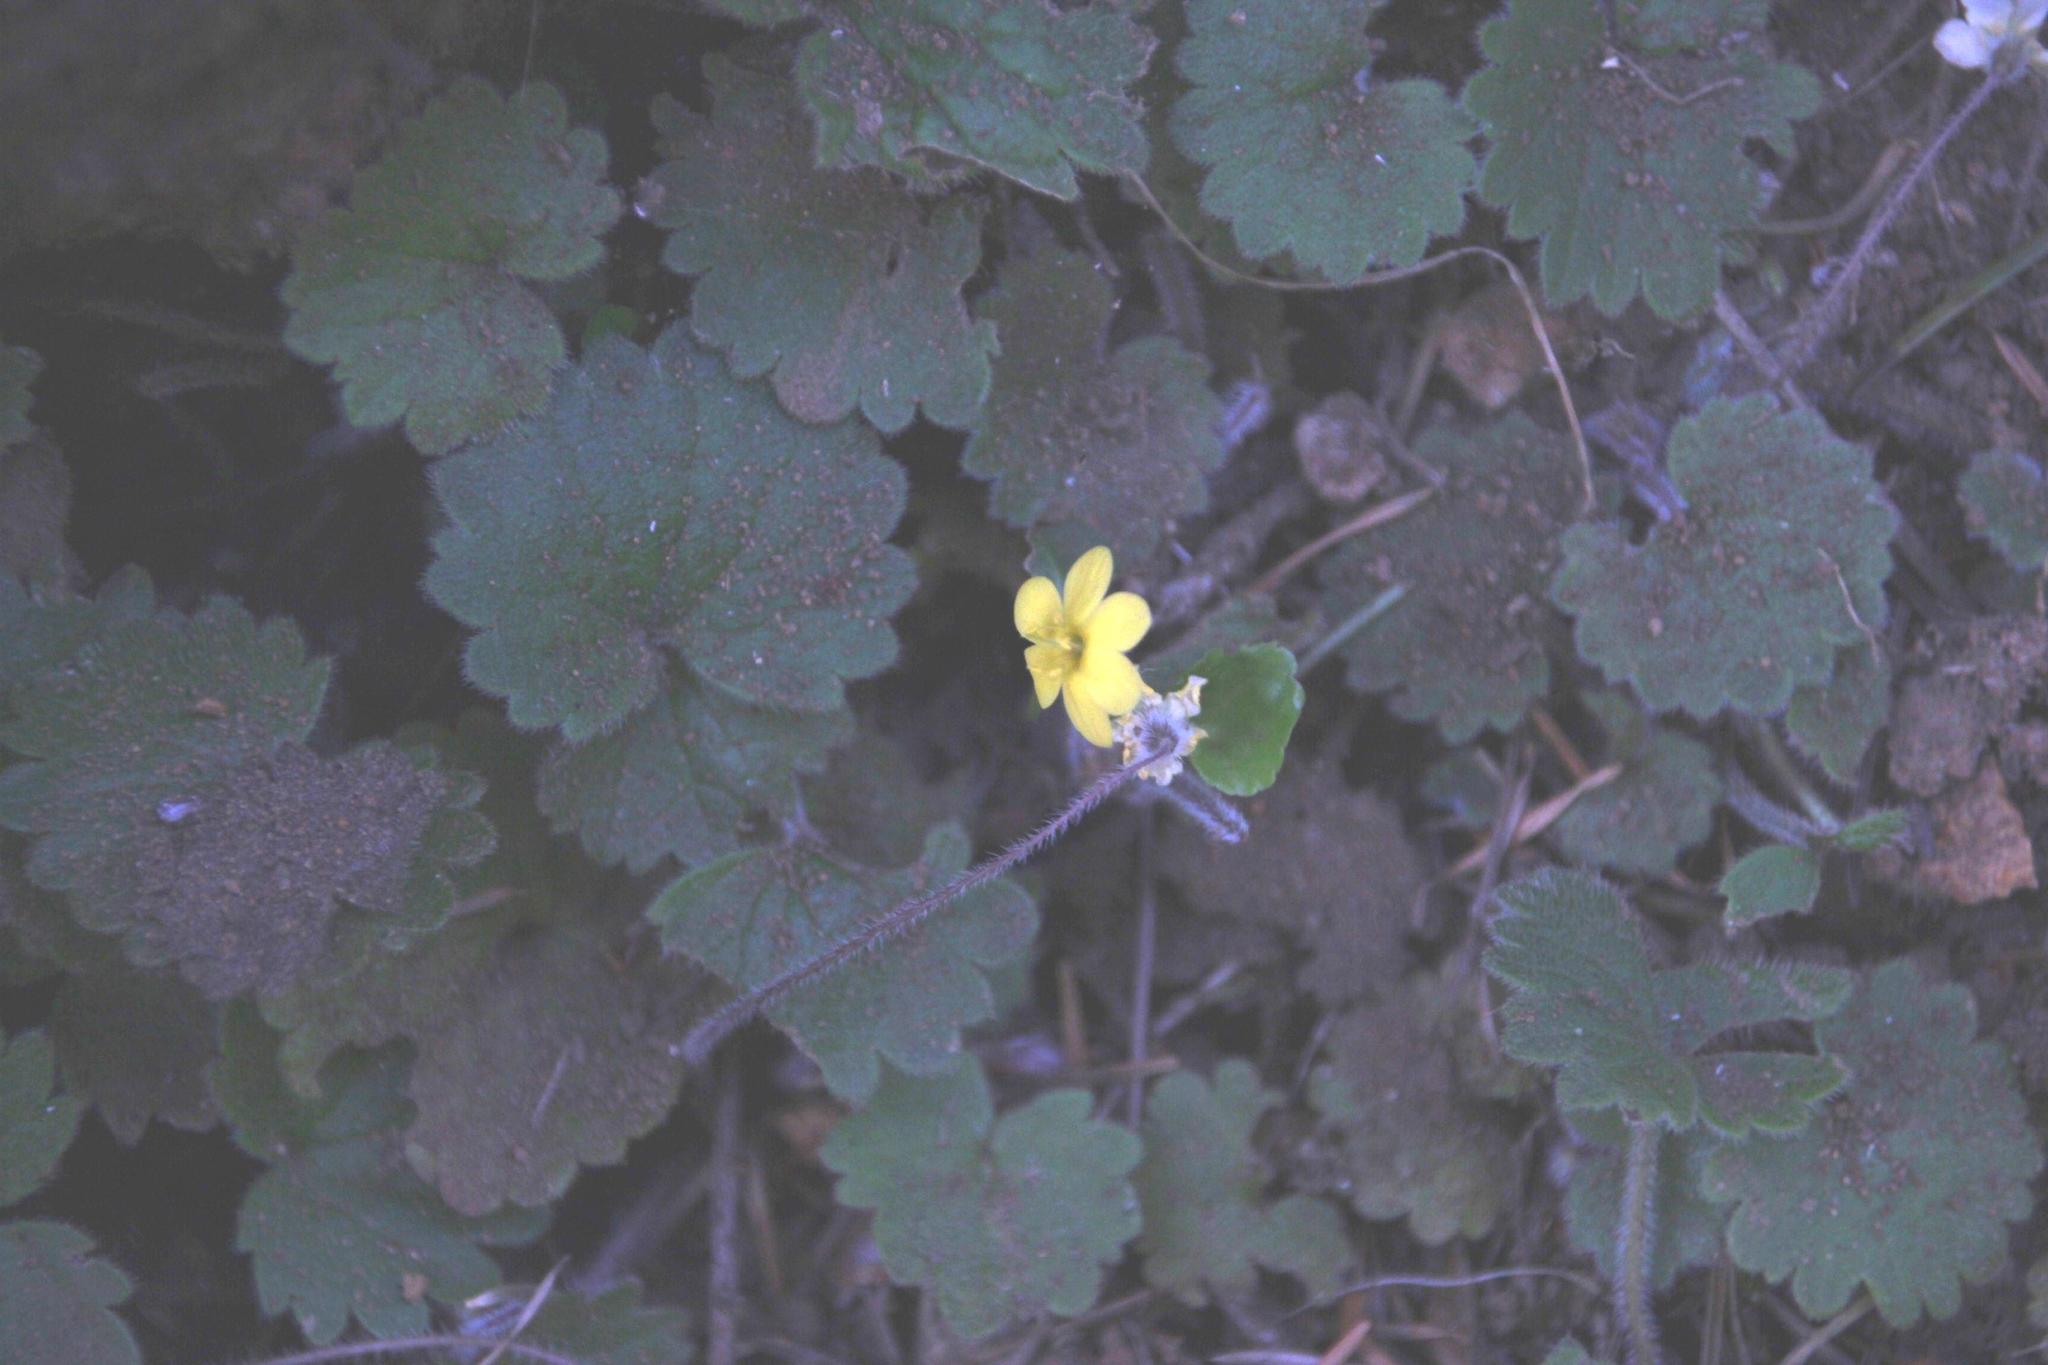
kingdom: Plantae
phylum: Tracheophyta
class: Magnoliopsida
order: Lamiales
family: Plantaginaceae
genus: Sibthorpia
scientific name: Sibthorpia peregrina
